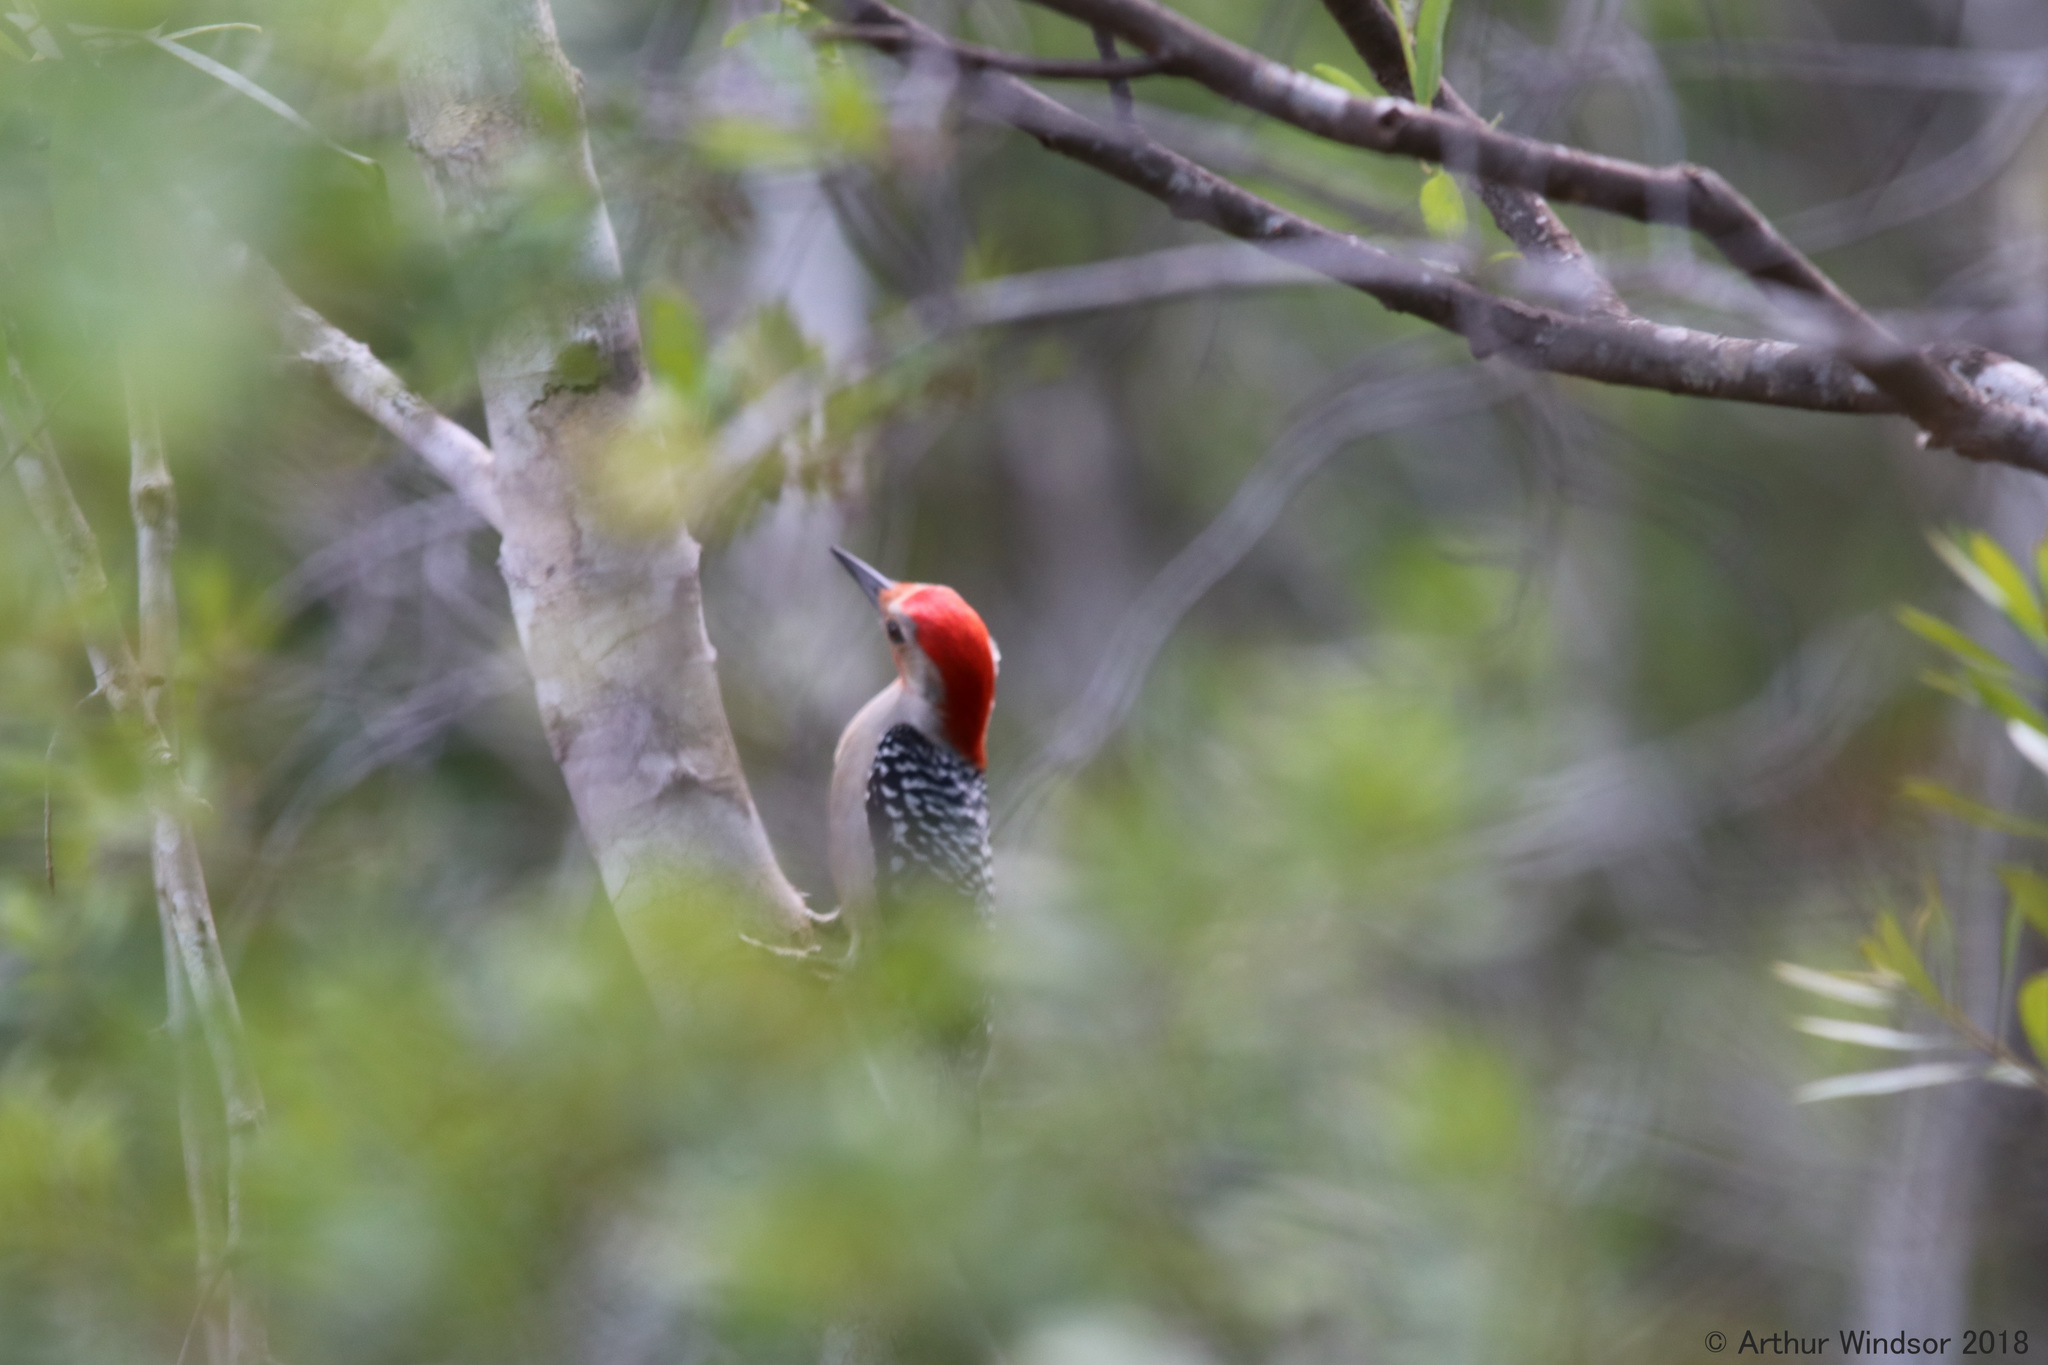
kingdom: Animalia
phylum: Chordata
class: Aves
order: Piciformes
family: Picidae
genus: Melanerpes
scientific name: Melanerpes carolinus
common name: Red-bellied woodpecker
